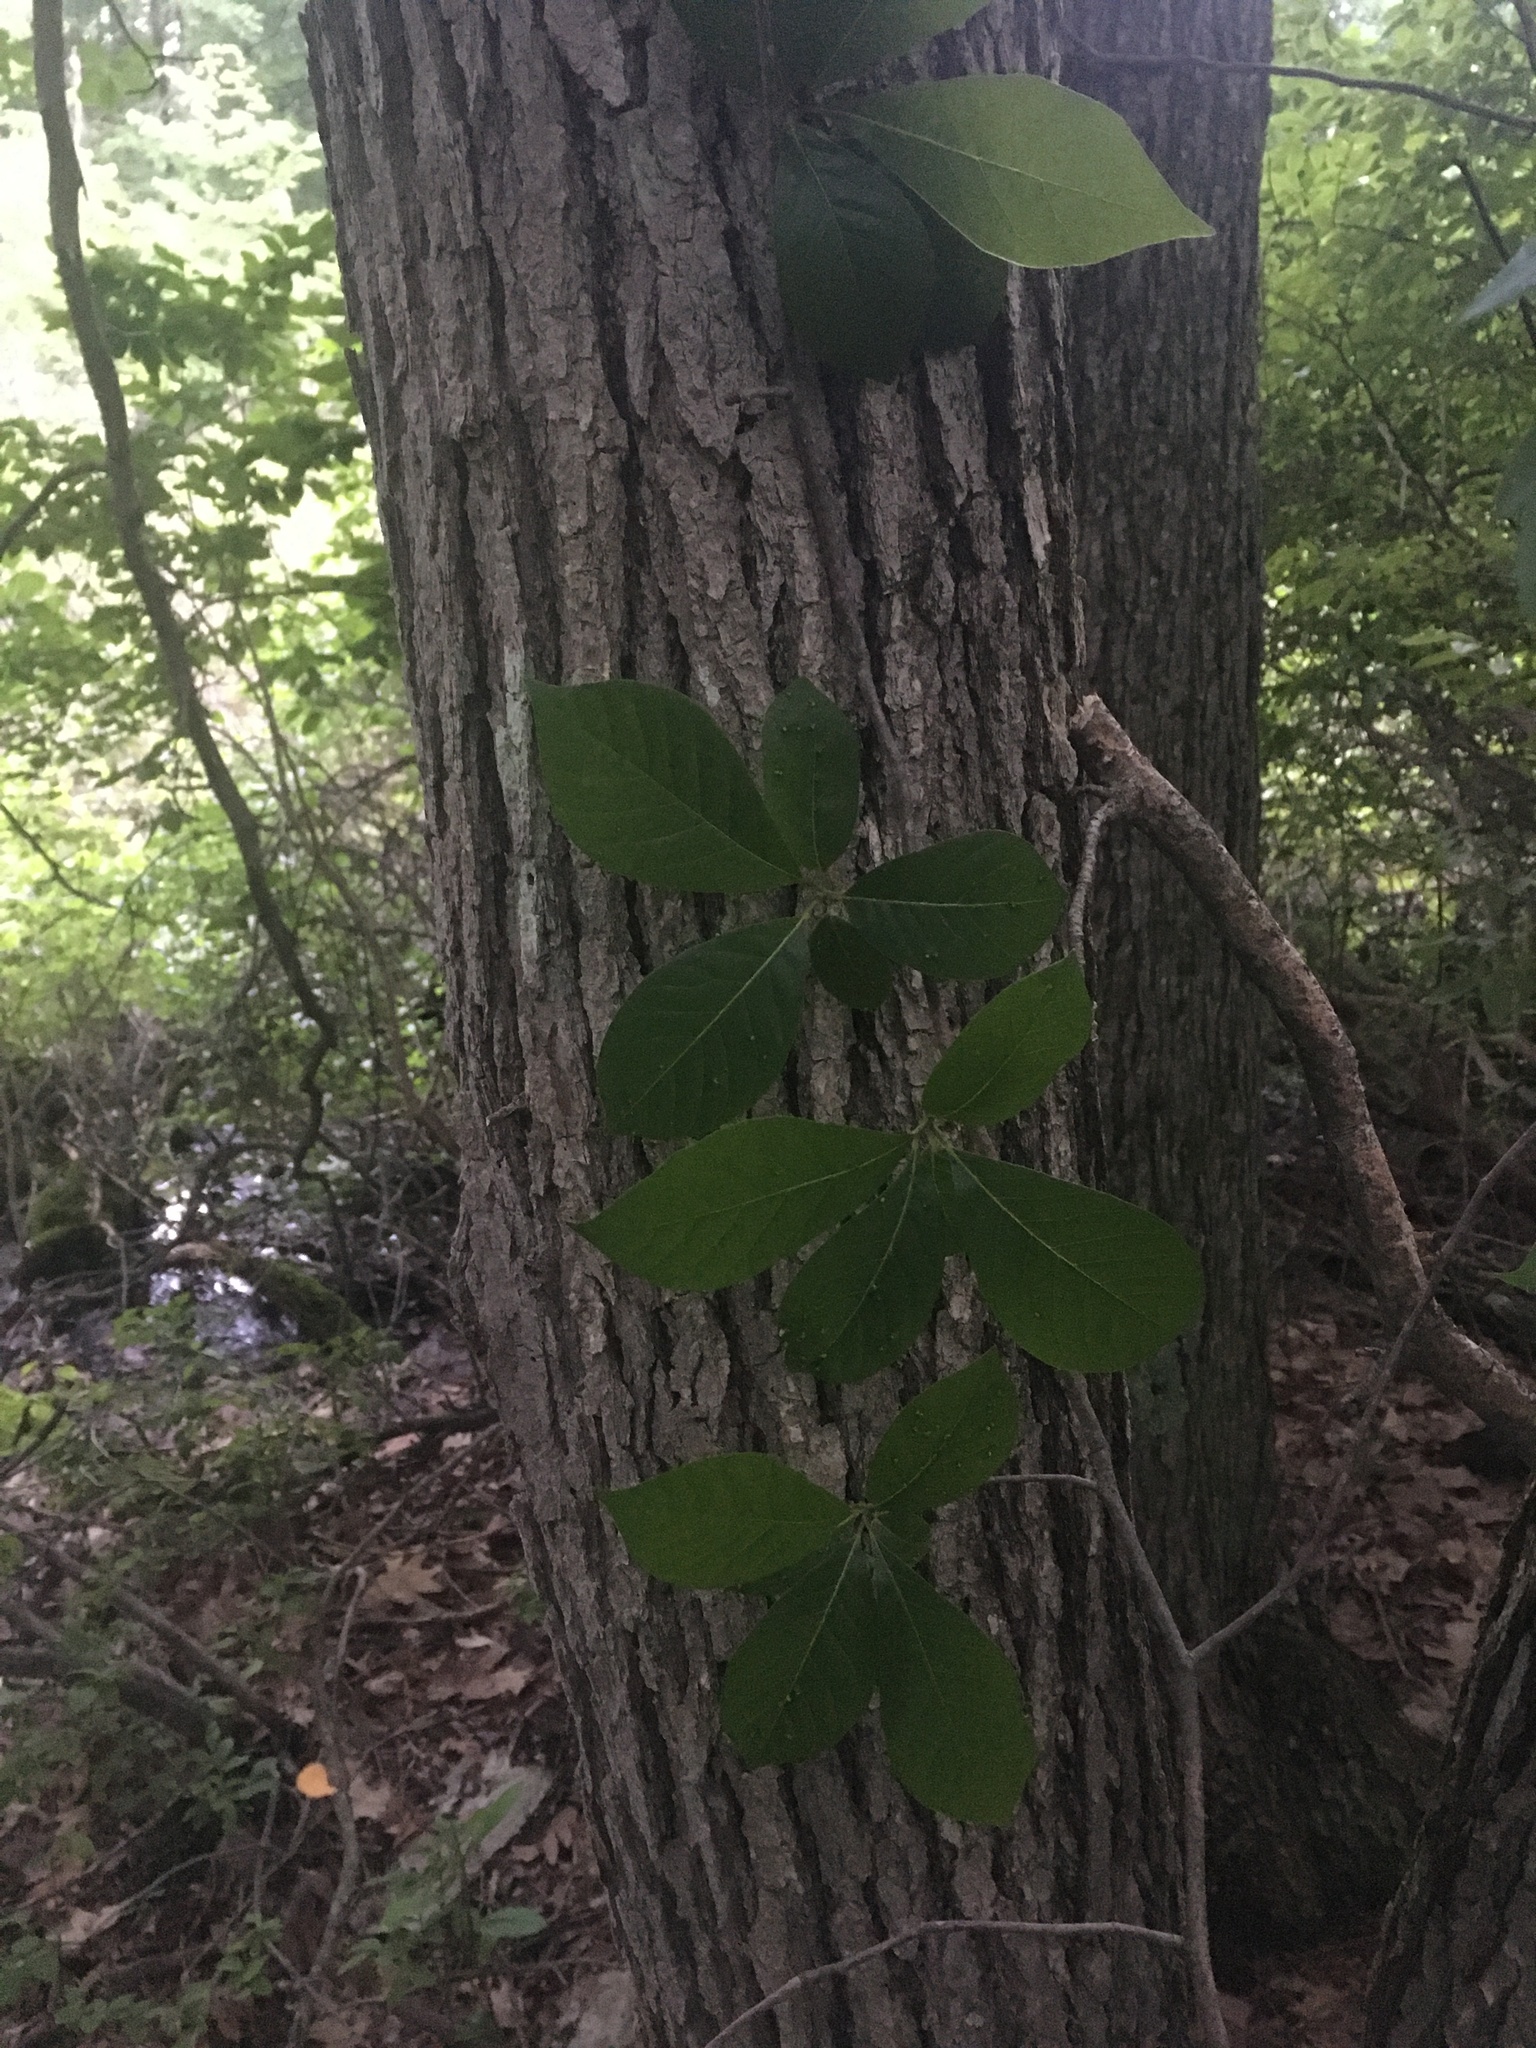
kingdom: Plantae
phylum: Tracheophyta
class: Magnoliopsida
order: Cornales
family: Nyssaceae
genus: Nyssa
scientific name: Nyssa sylvatica
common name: Black tupelo
